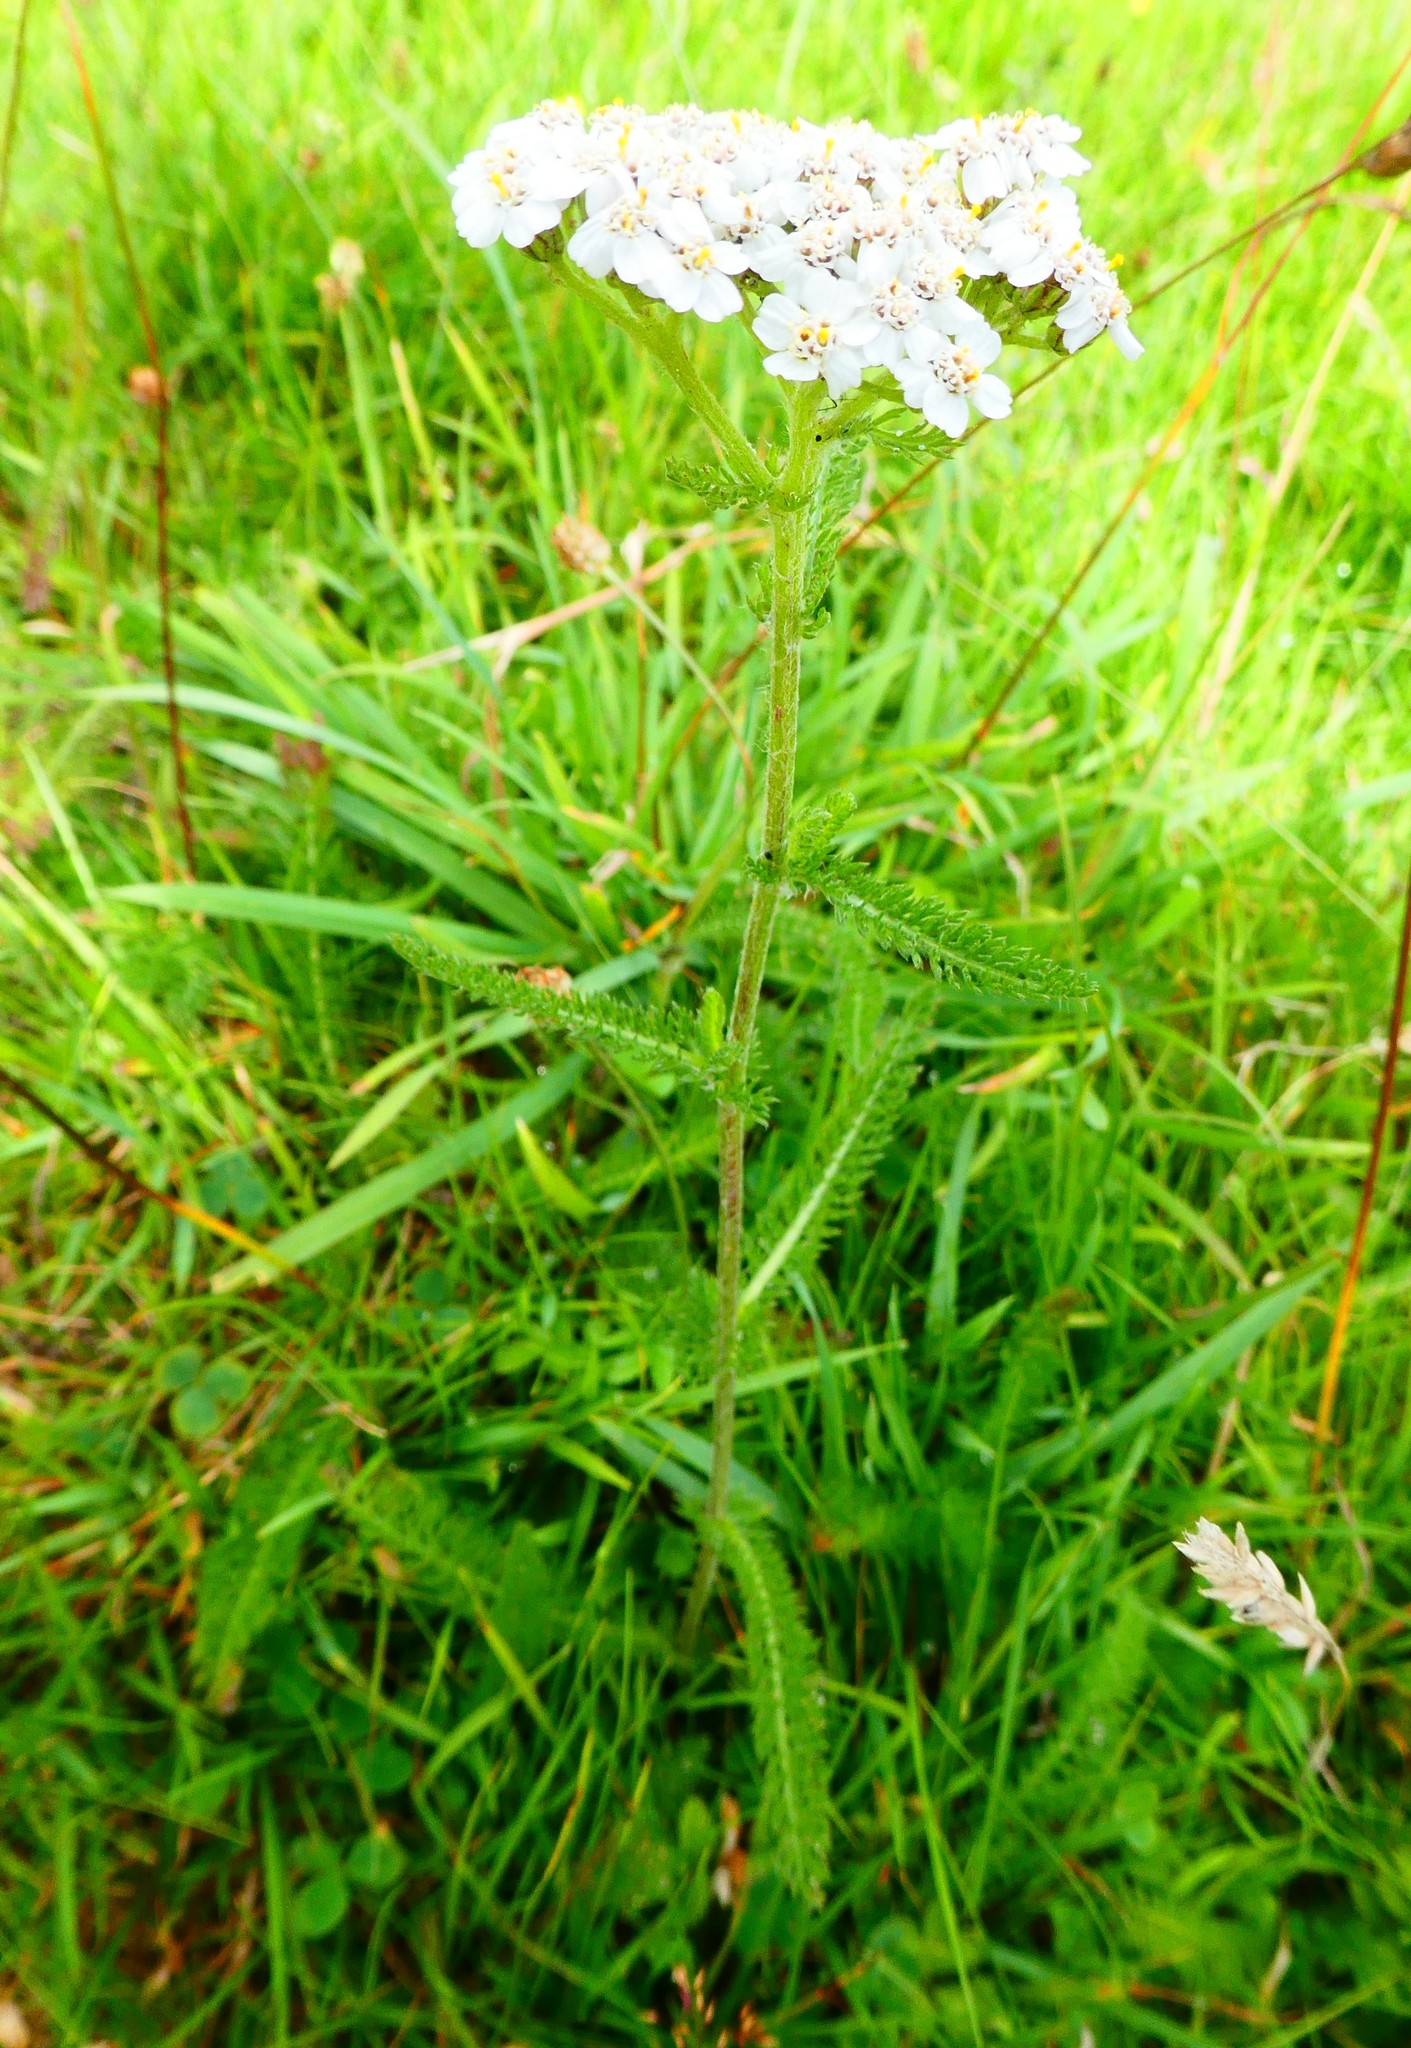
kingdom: Plantae
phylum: Tracheophyta
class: Magnoliopsida
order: Asterales
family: Asteraceae
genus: Achillea
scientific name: Achillea millefolium
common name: Yarrow
